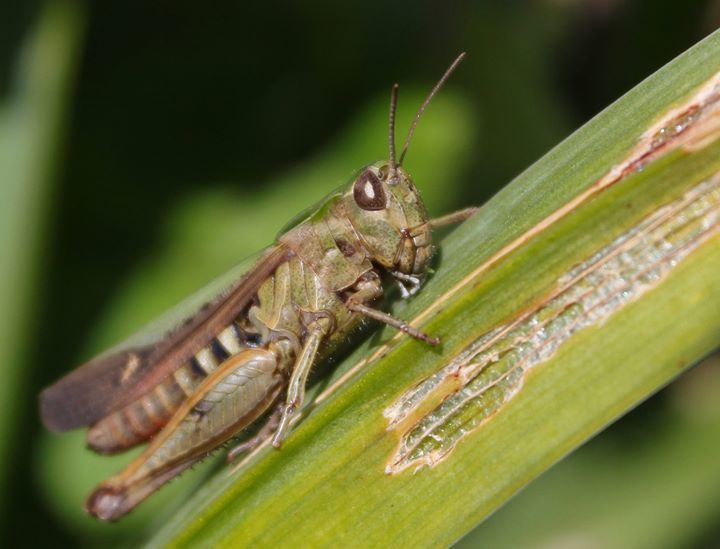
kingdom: Animalia
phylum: Arthropoda
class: Insecta
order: Orthoptera
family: Acrididae
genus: Omocestus
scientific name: Omocestus rufipes
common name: Woodland grasshopper
